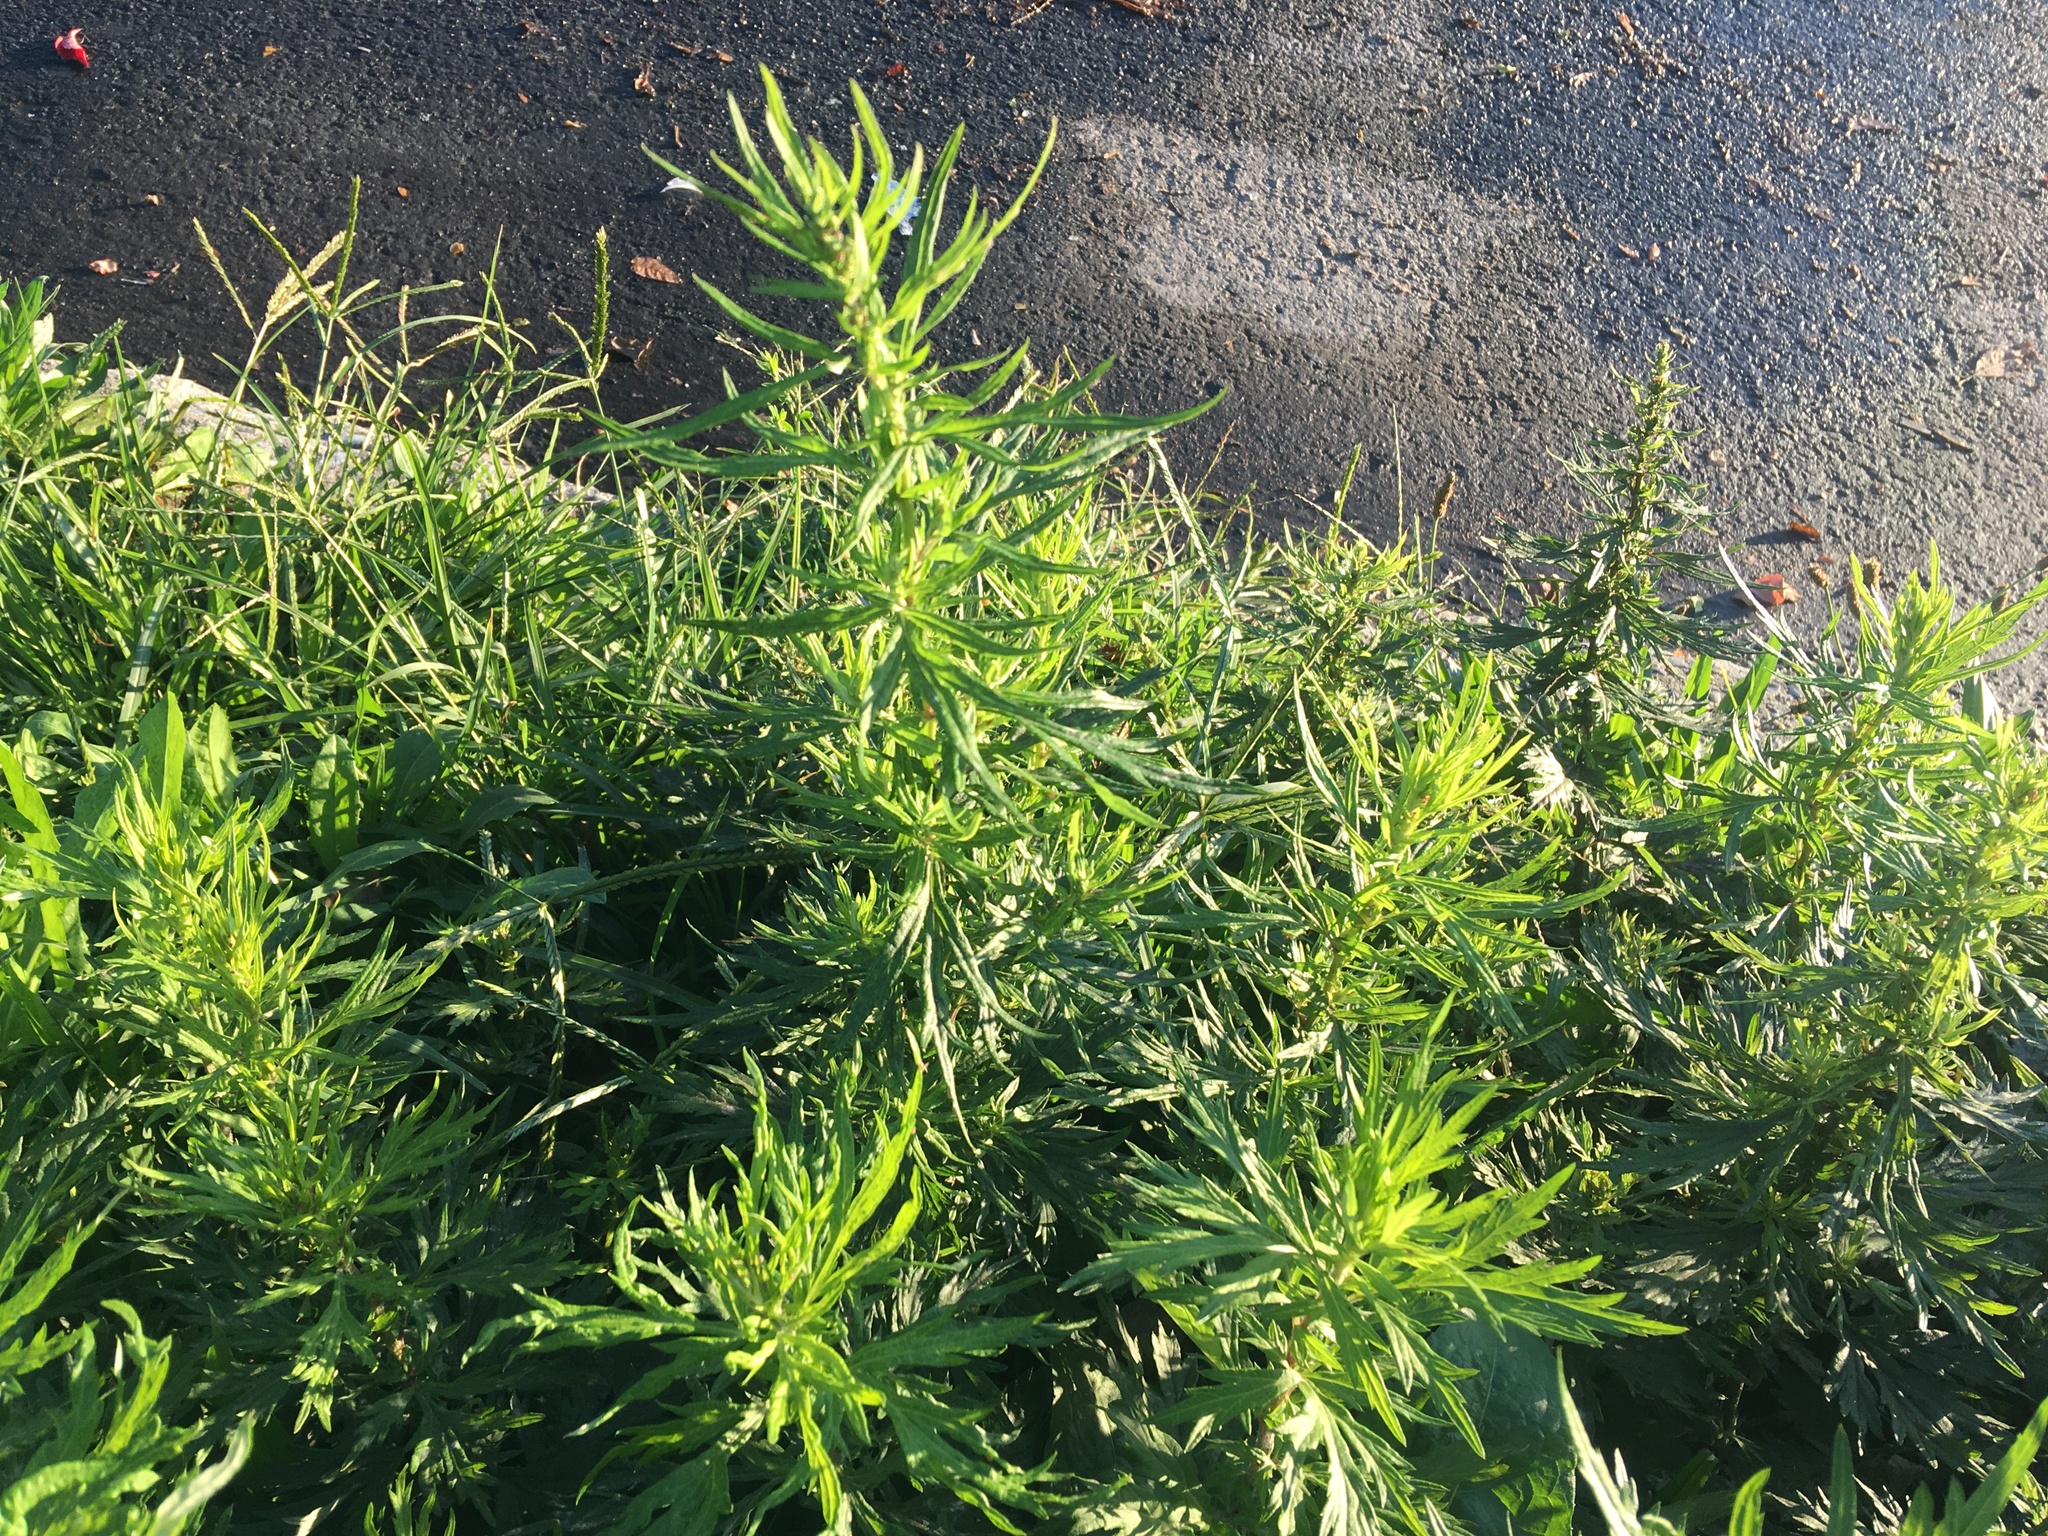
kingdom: Plantae
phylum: Tracheophyta
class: Magnoliopsida
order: Asterales
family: Asteraceae
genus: Artemisia
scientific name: Artemisia vulgaris
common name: Mugwort
